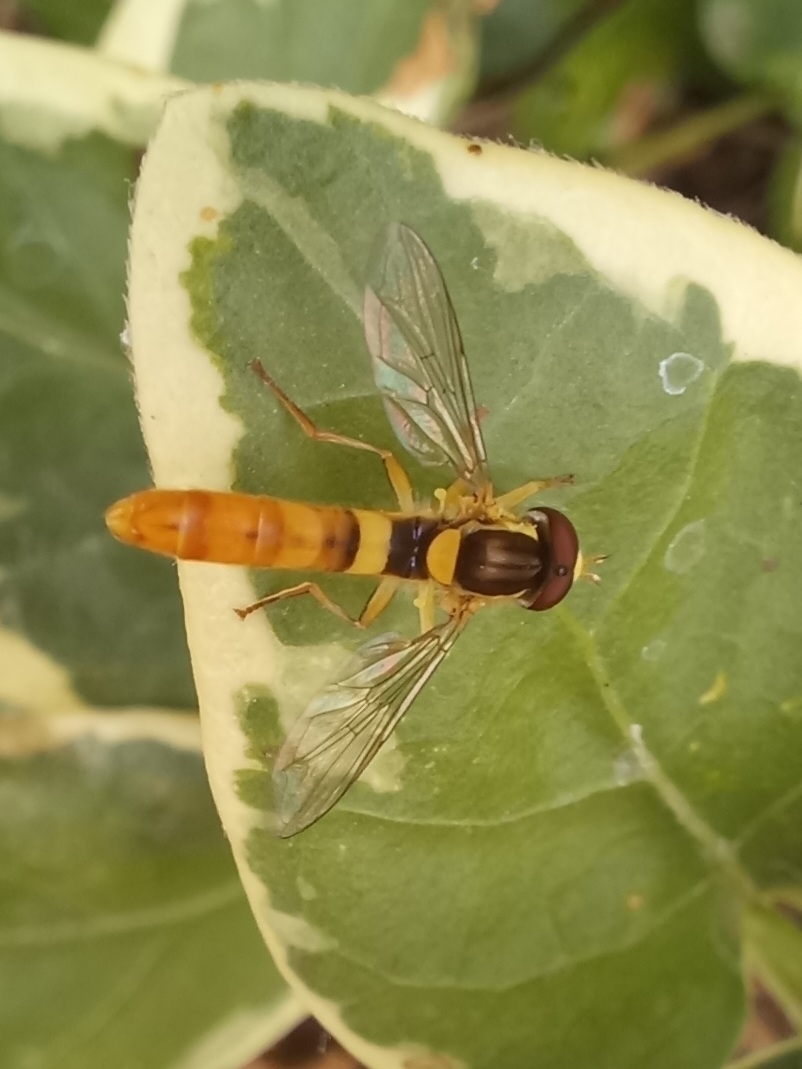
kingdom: Animalia
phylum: Arthropoda
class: Insecta
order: Diptera
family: Syrphidae
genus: Sphaerophoria
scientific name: Sphaerophoria scripta
